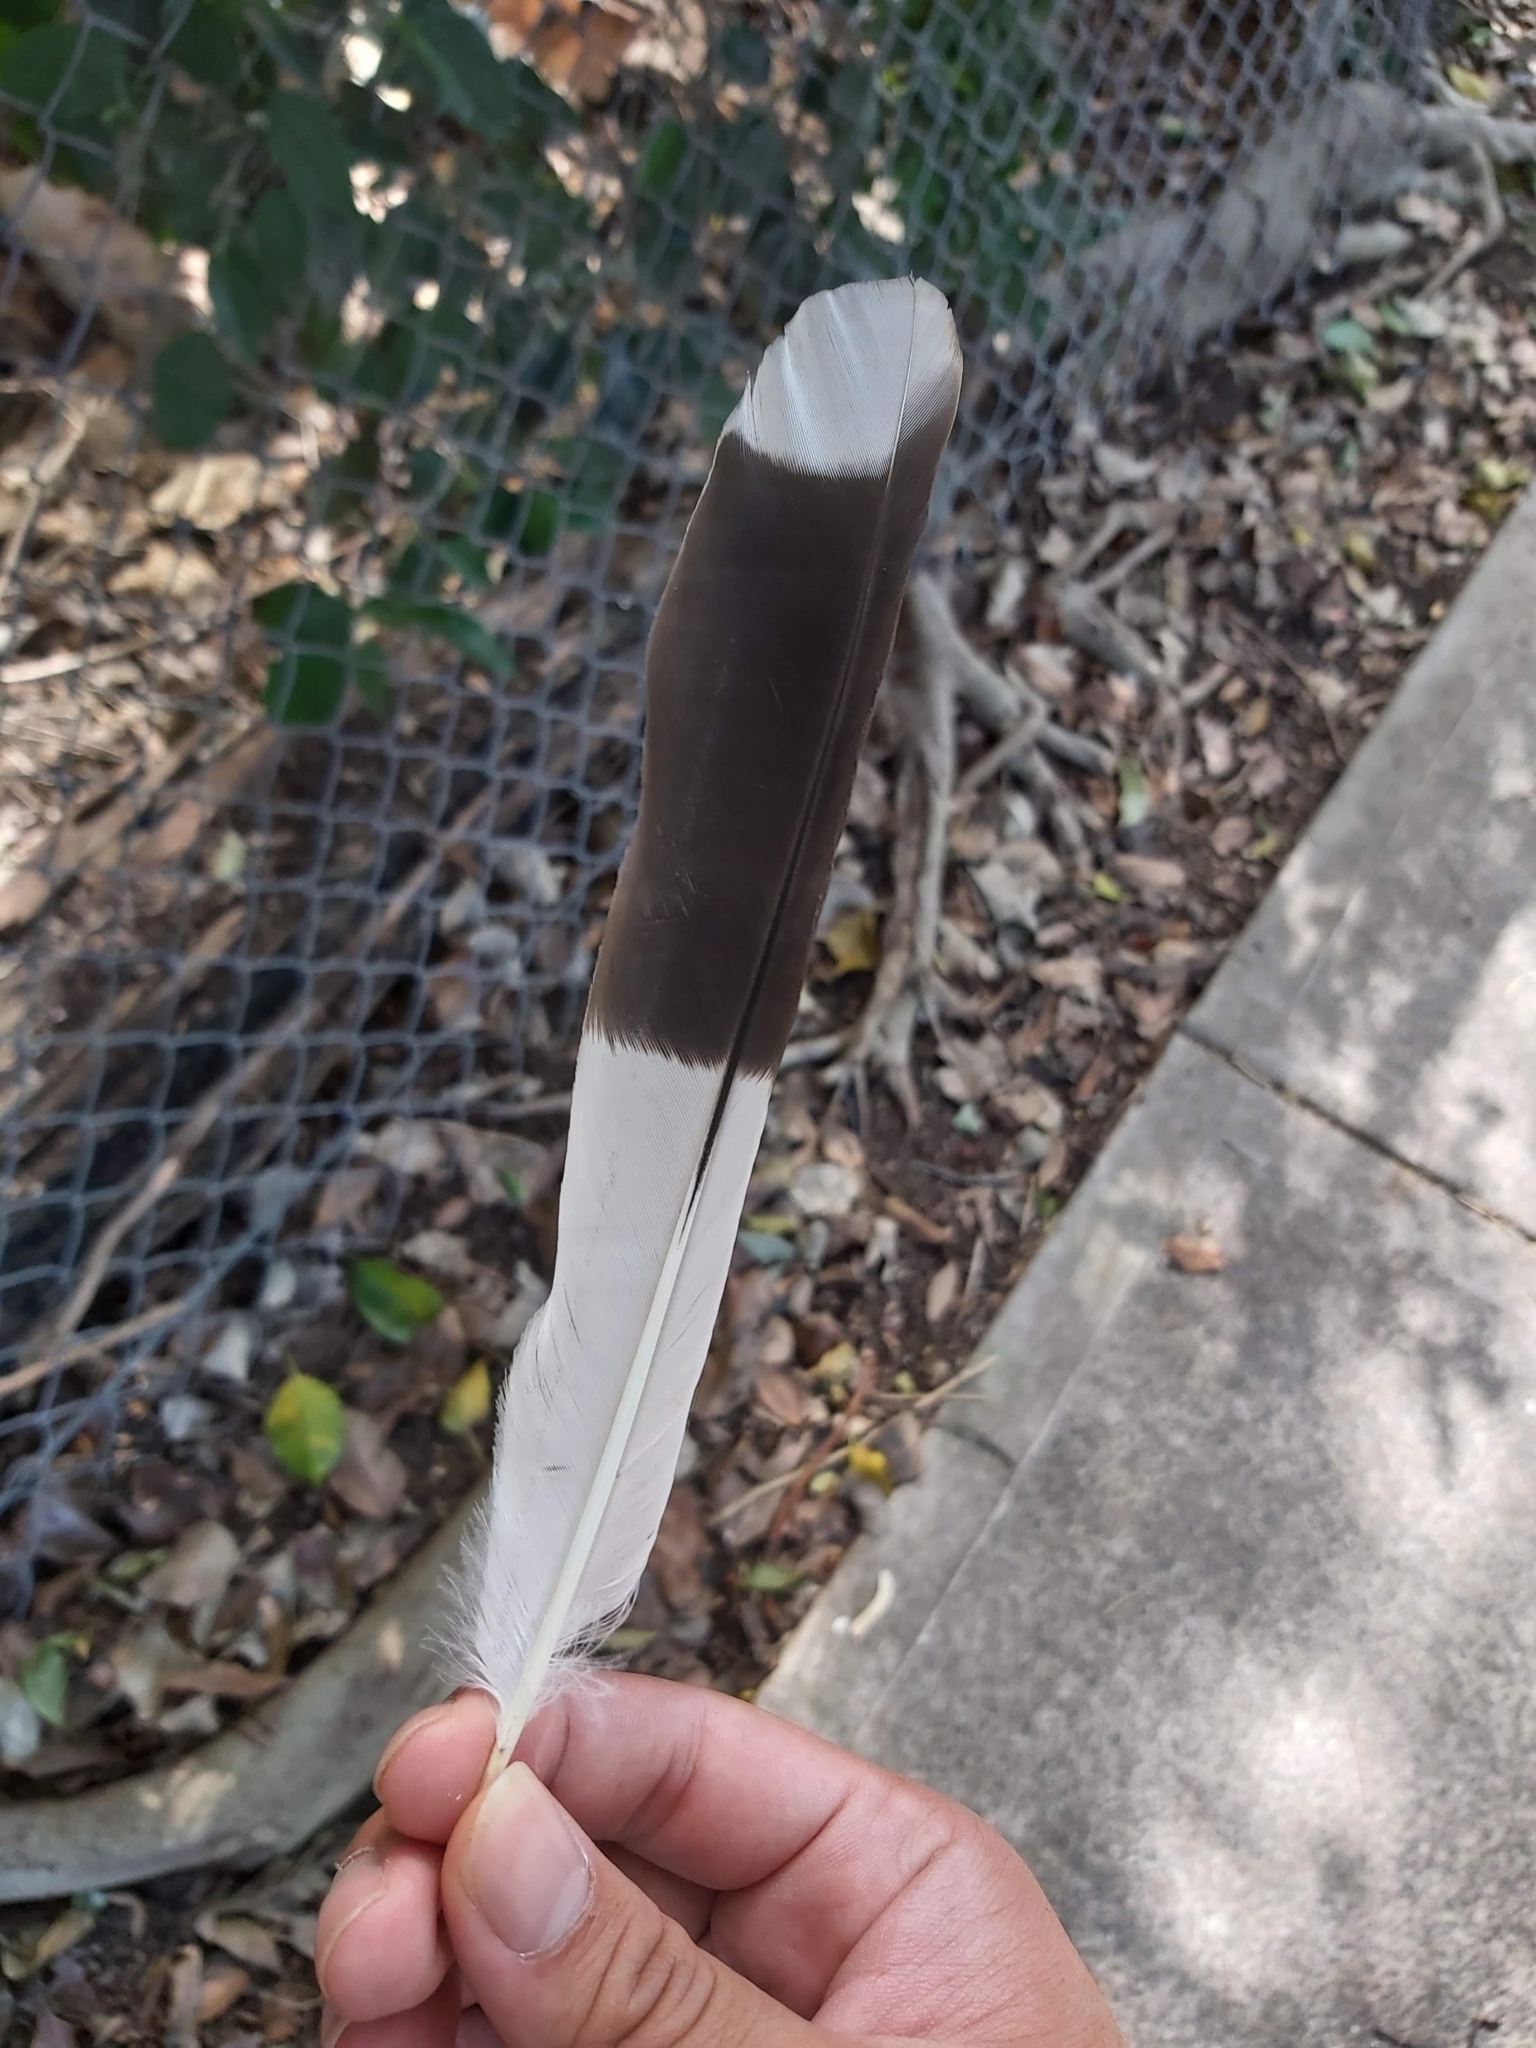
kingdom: Animalia
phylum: Chordata
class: Aves
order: Passeriformes
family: Cracticidae
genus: Strepera
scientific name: Strepera graculina
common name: Pied currawong
